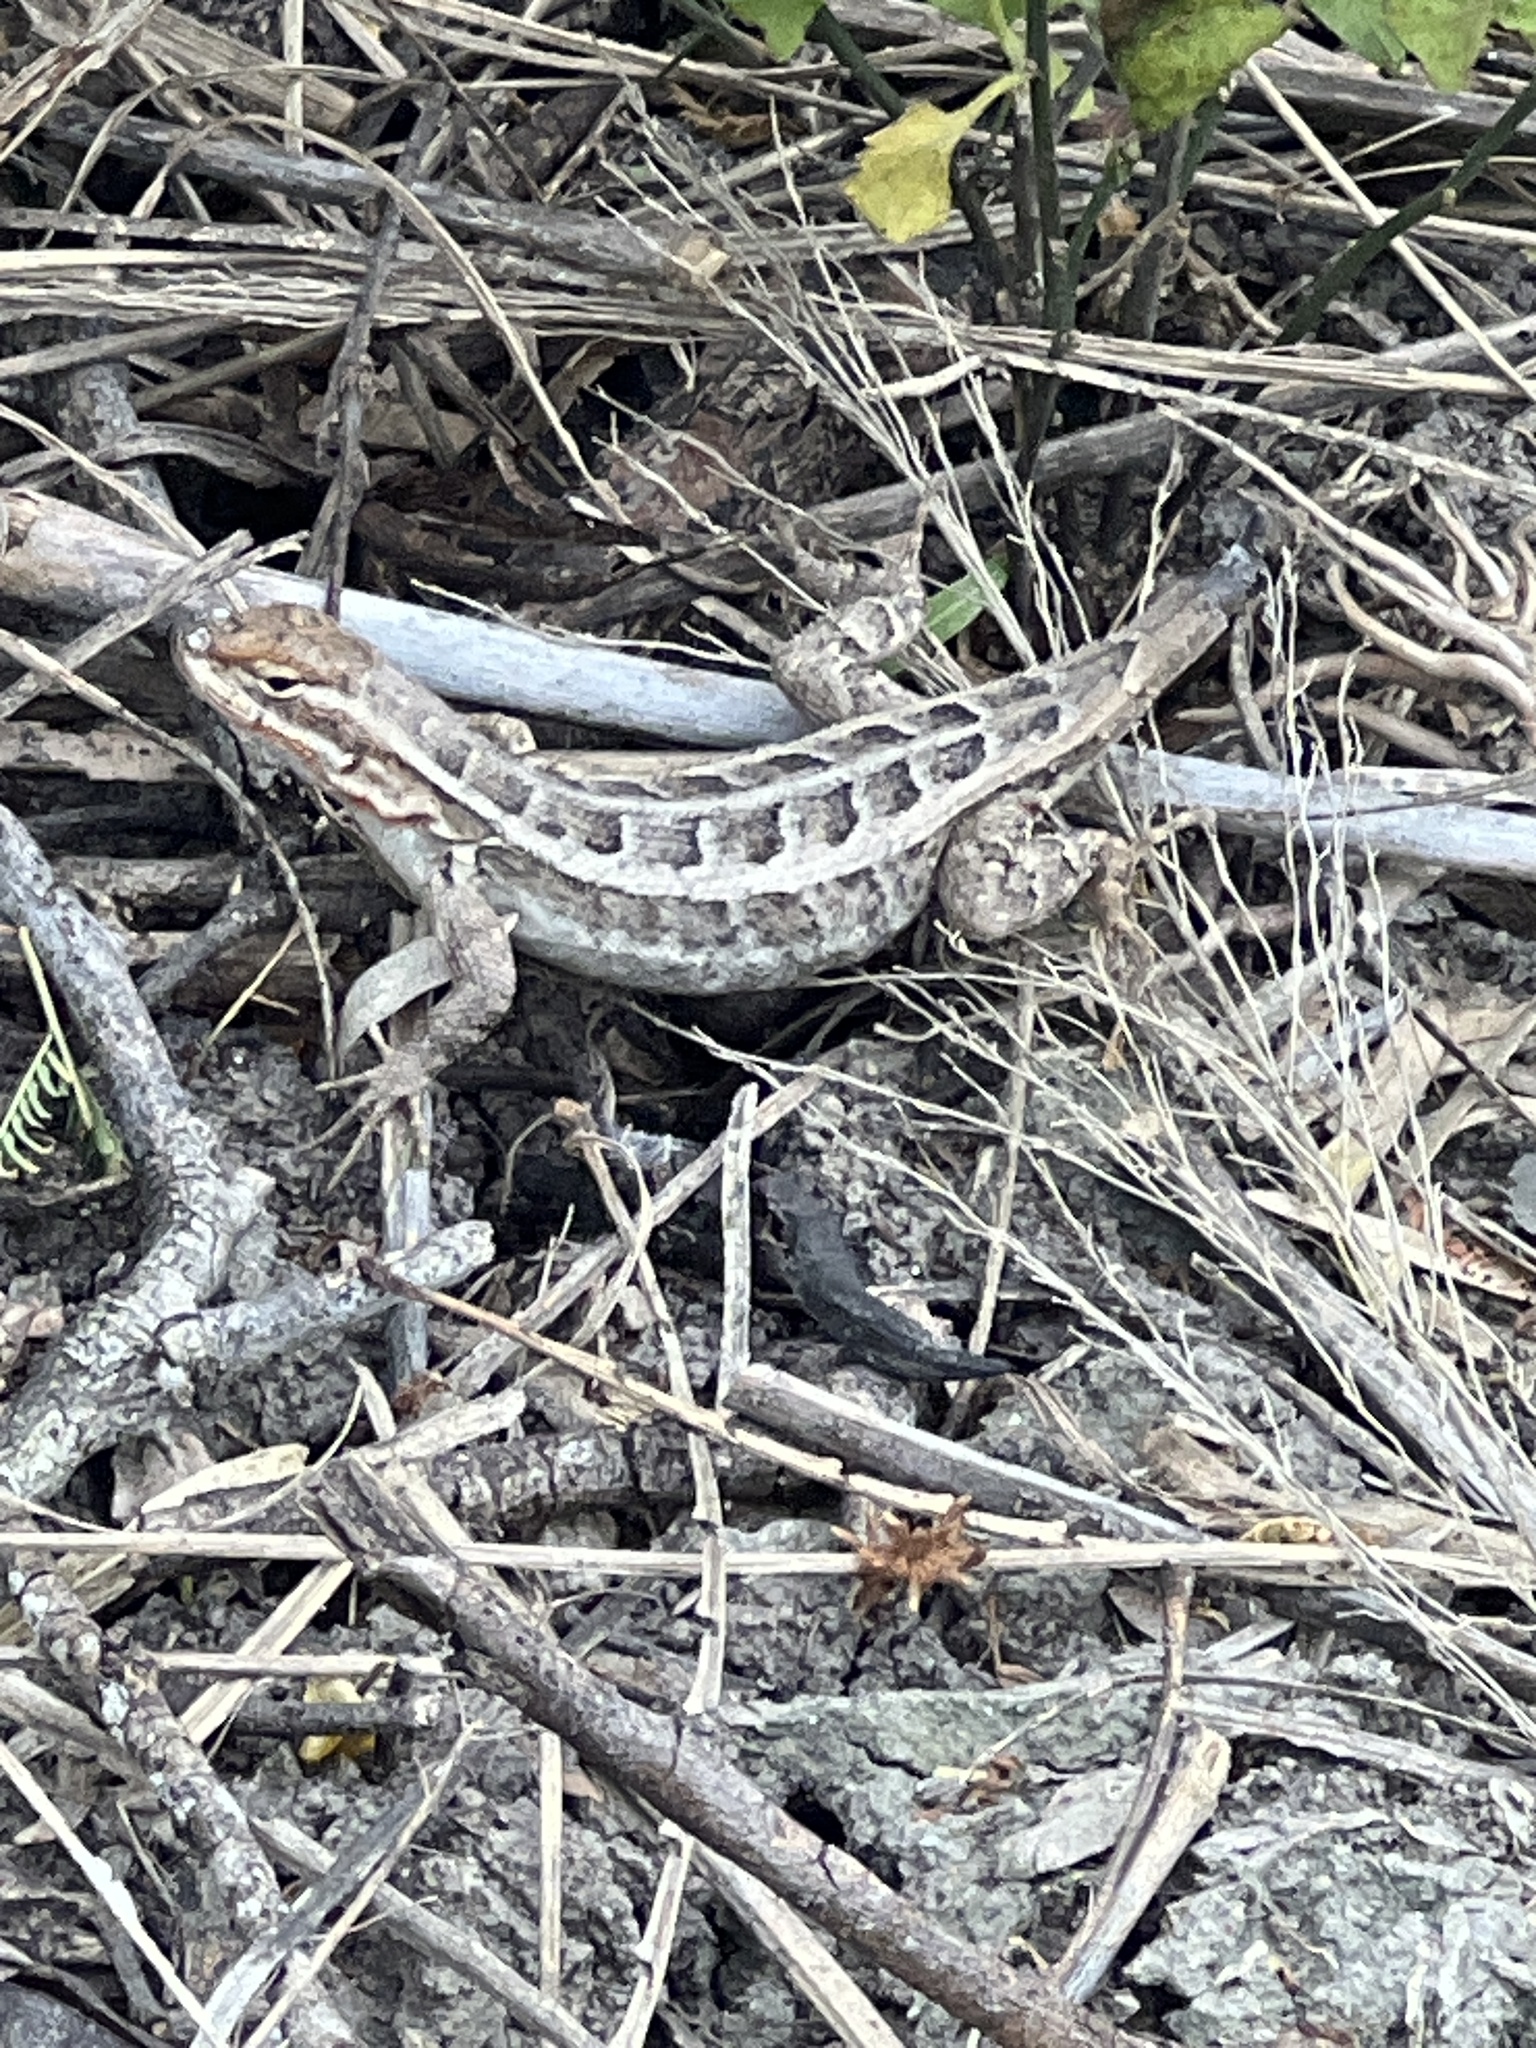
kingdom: Animalia
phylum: Chordata
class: Squamata
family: Phrynosomatidae
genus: Sceloporus
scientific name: Sceloporus variabilis
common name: Rosebelly lizard
